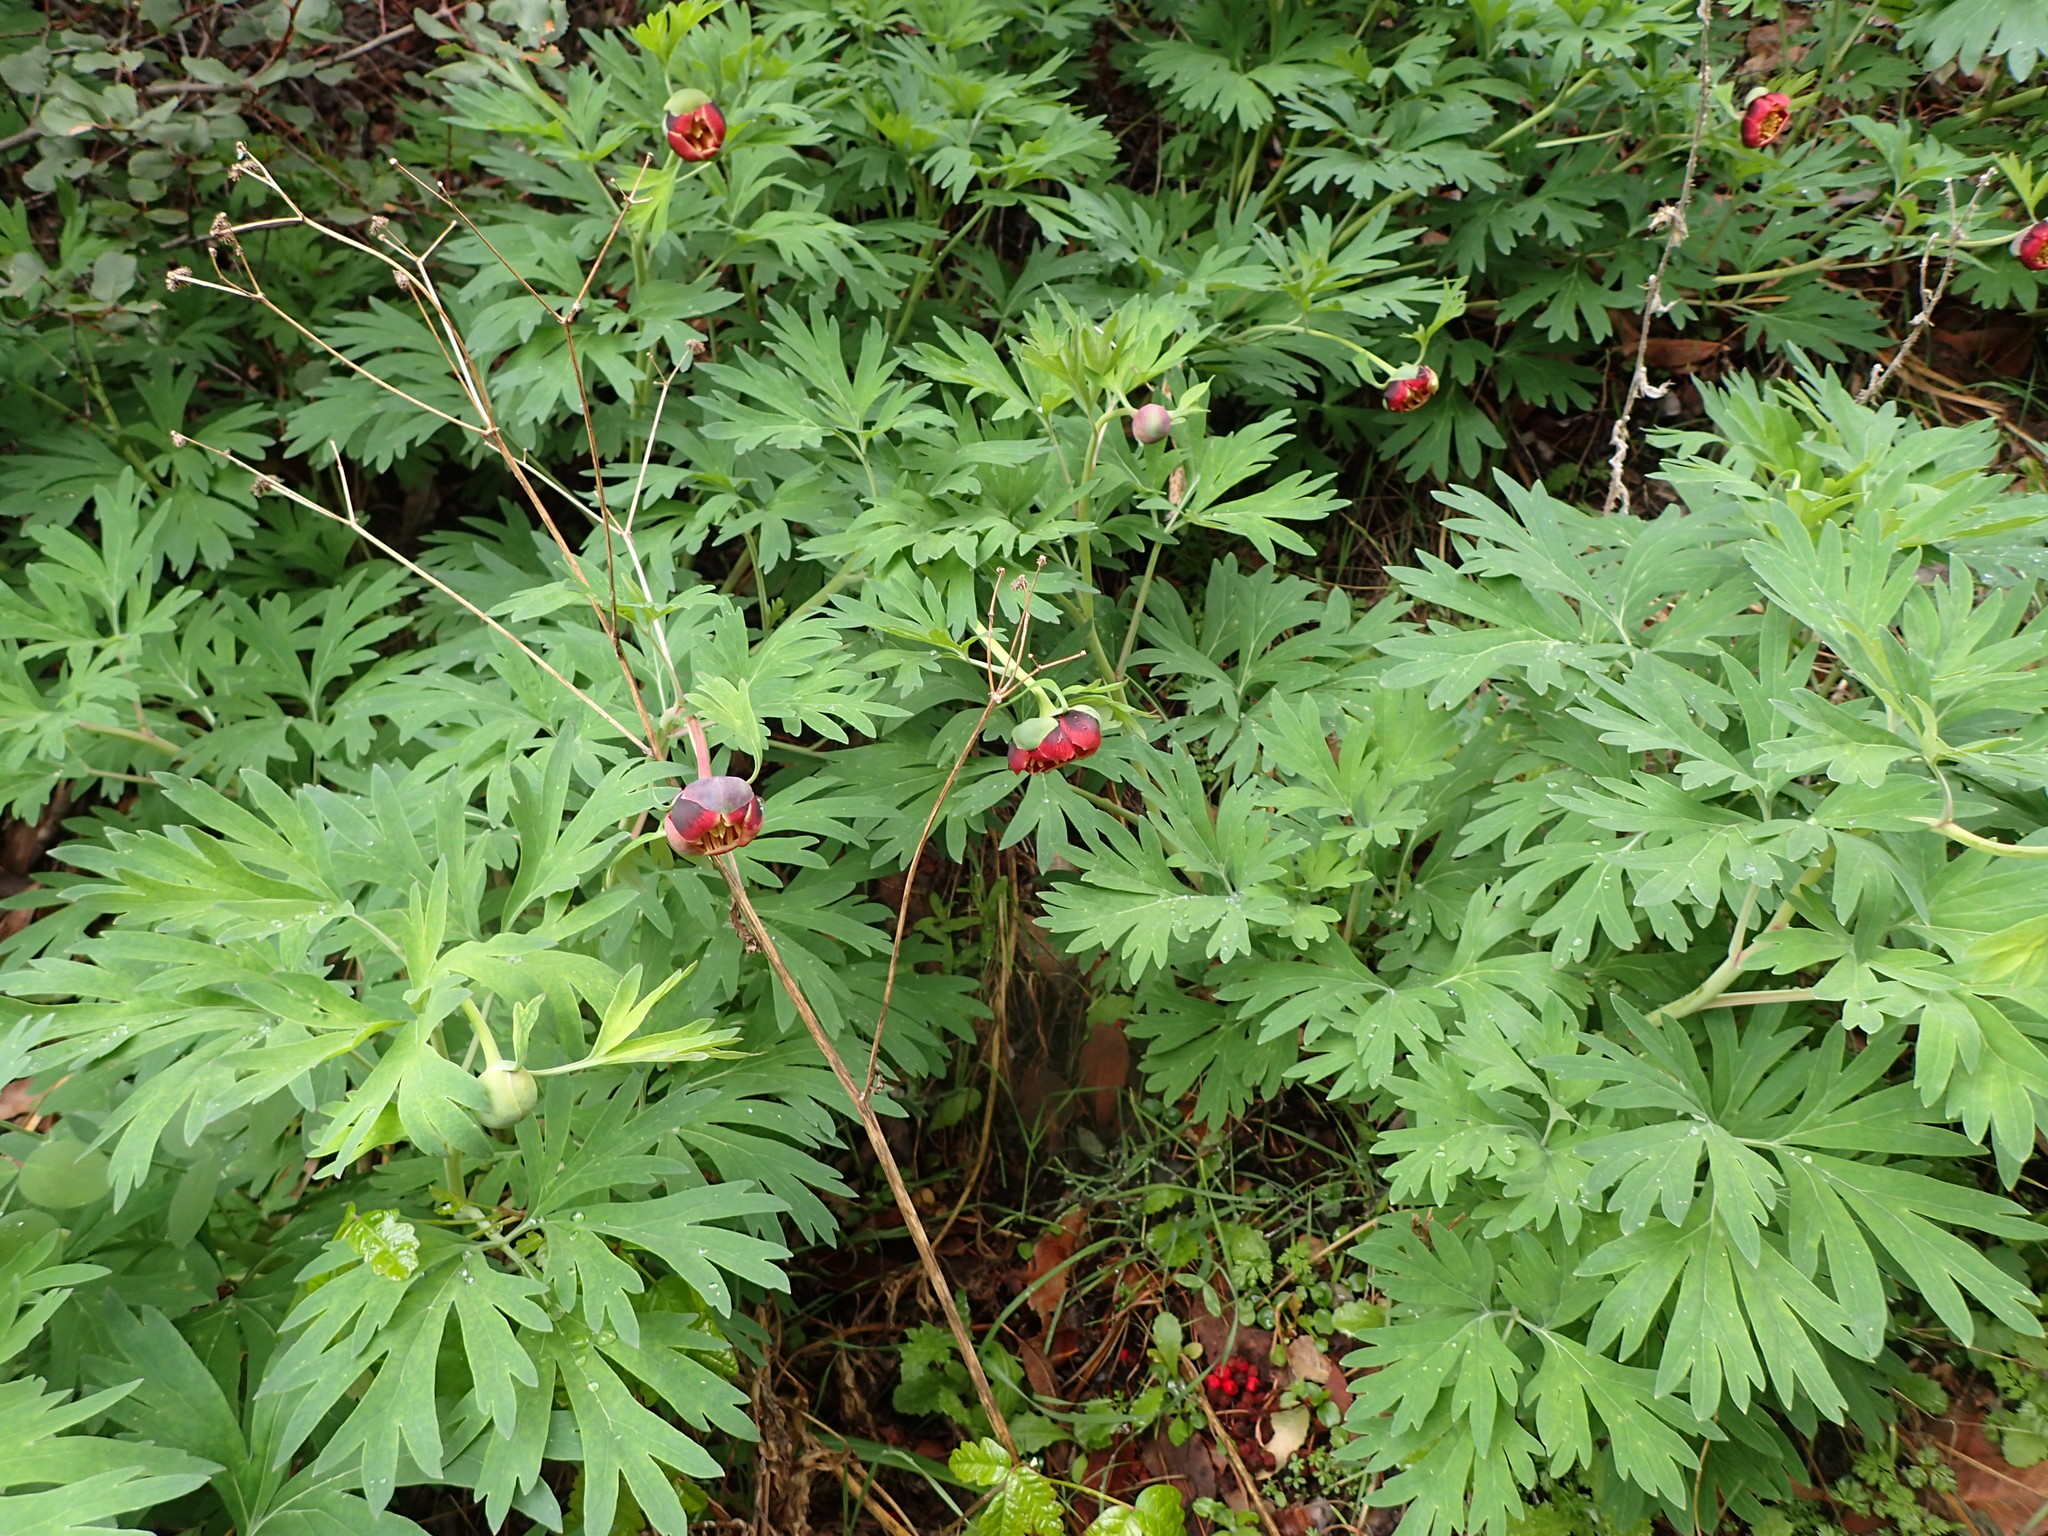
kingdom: Plantae
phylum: Tracheophyta
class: Magnoliopsida
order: Saxifragales
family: Paeoniaceae
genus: Paeonia
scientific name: Paeonia californica
